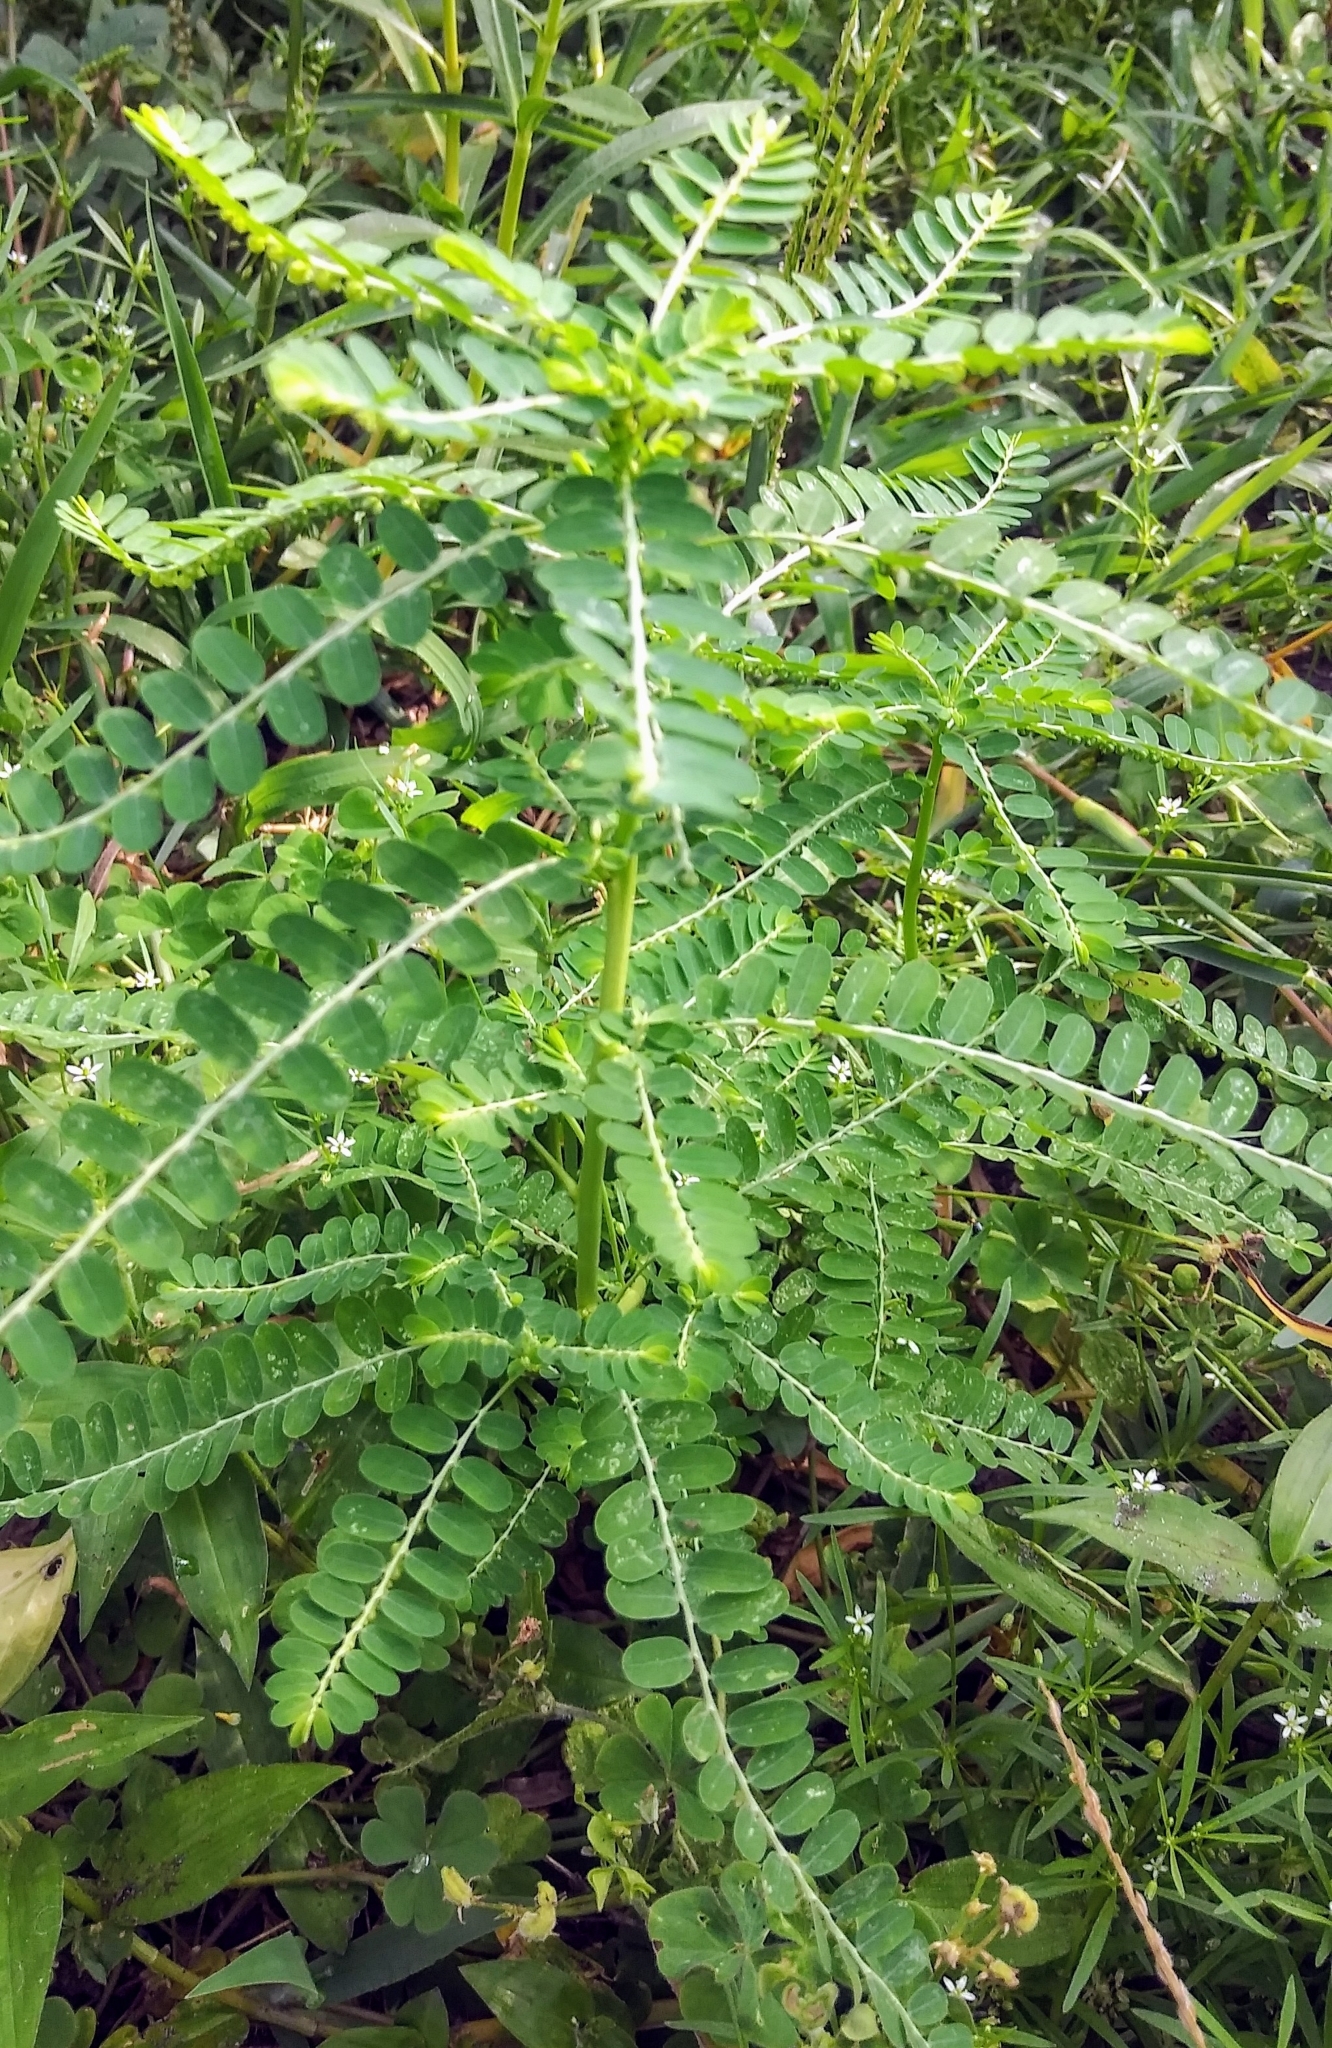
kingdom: Plantae
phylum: Tracheophyta
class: Magnoliopsida
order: Malpighiales
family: Phyllanthaceae
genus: Phyllanthus
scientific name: Phyllanthus urinaria
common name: Chamber bitter
